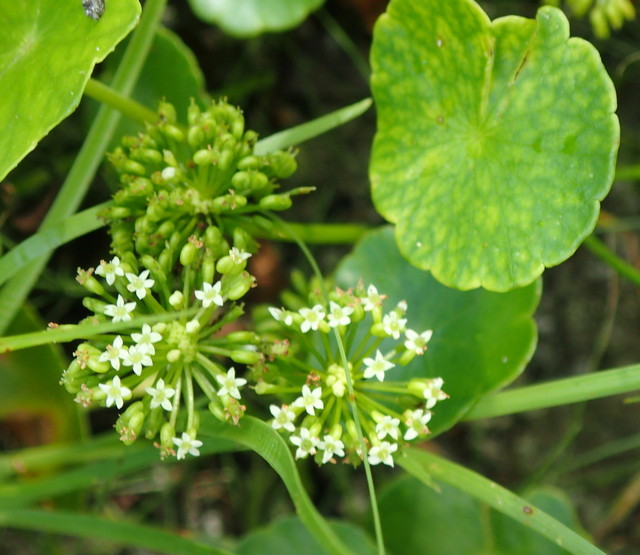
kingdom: Plantae
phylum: Tracheophyta
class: Magnoliopsida
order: Apiales
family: Araliaceae
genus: Hydrocotyle
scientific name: Hydrocotyle umbellata
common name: Water pennywort
